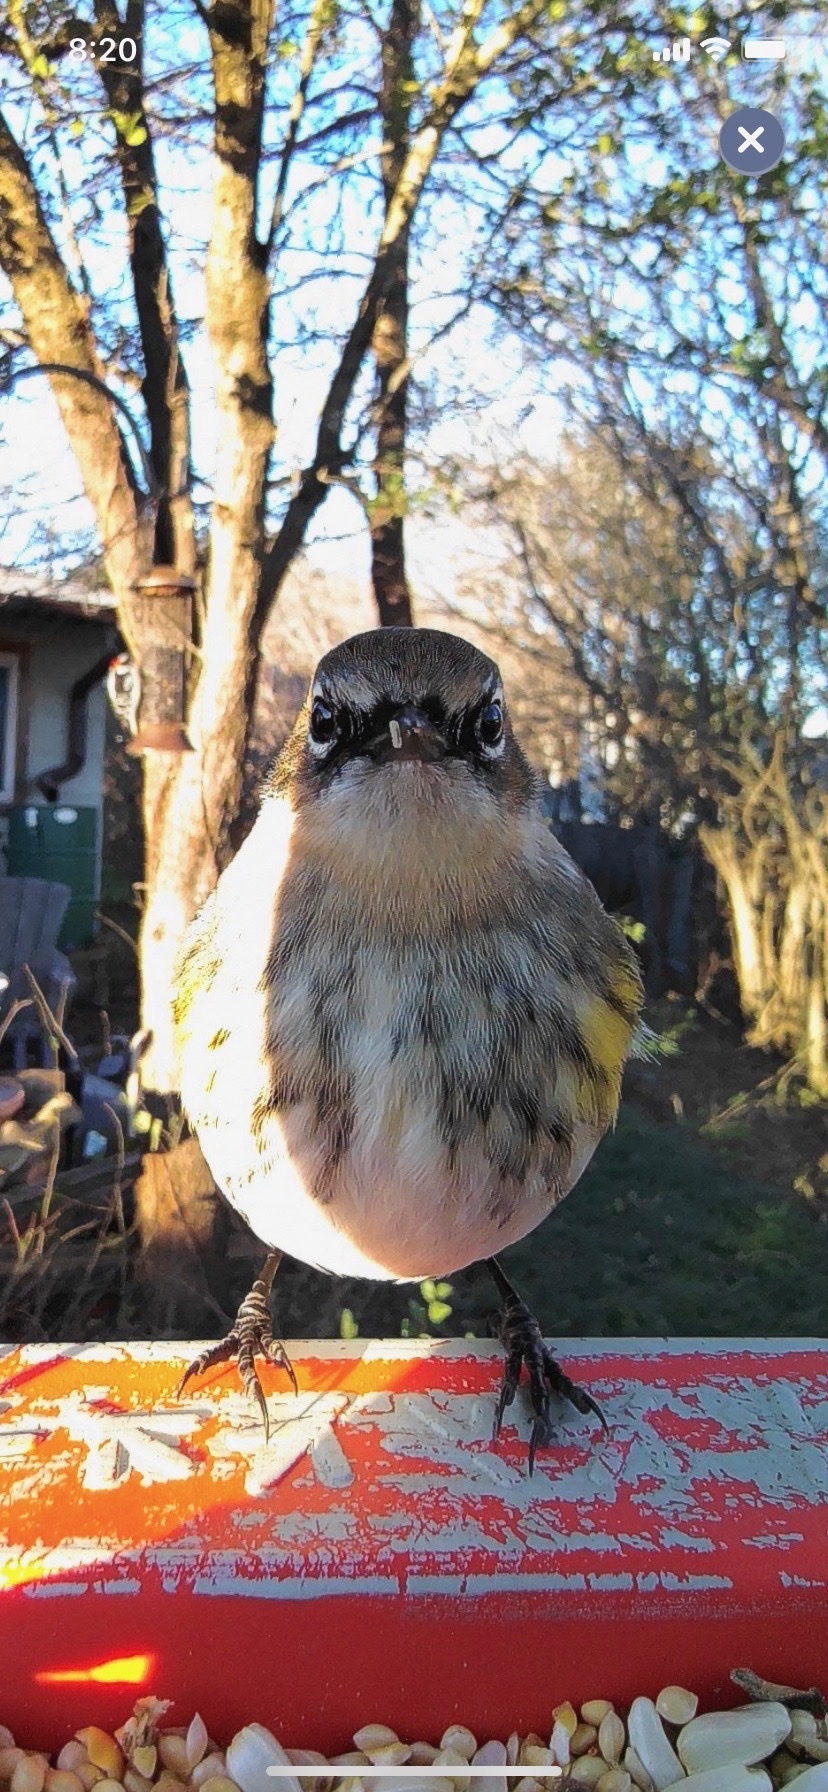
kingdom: Animalia
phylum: Chordata
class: Aves
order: Passeriformes
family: Parulidae
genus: Setophaga
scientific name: Setophaga coronata
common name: Myrtle warbler
